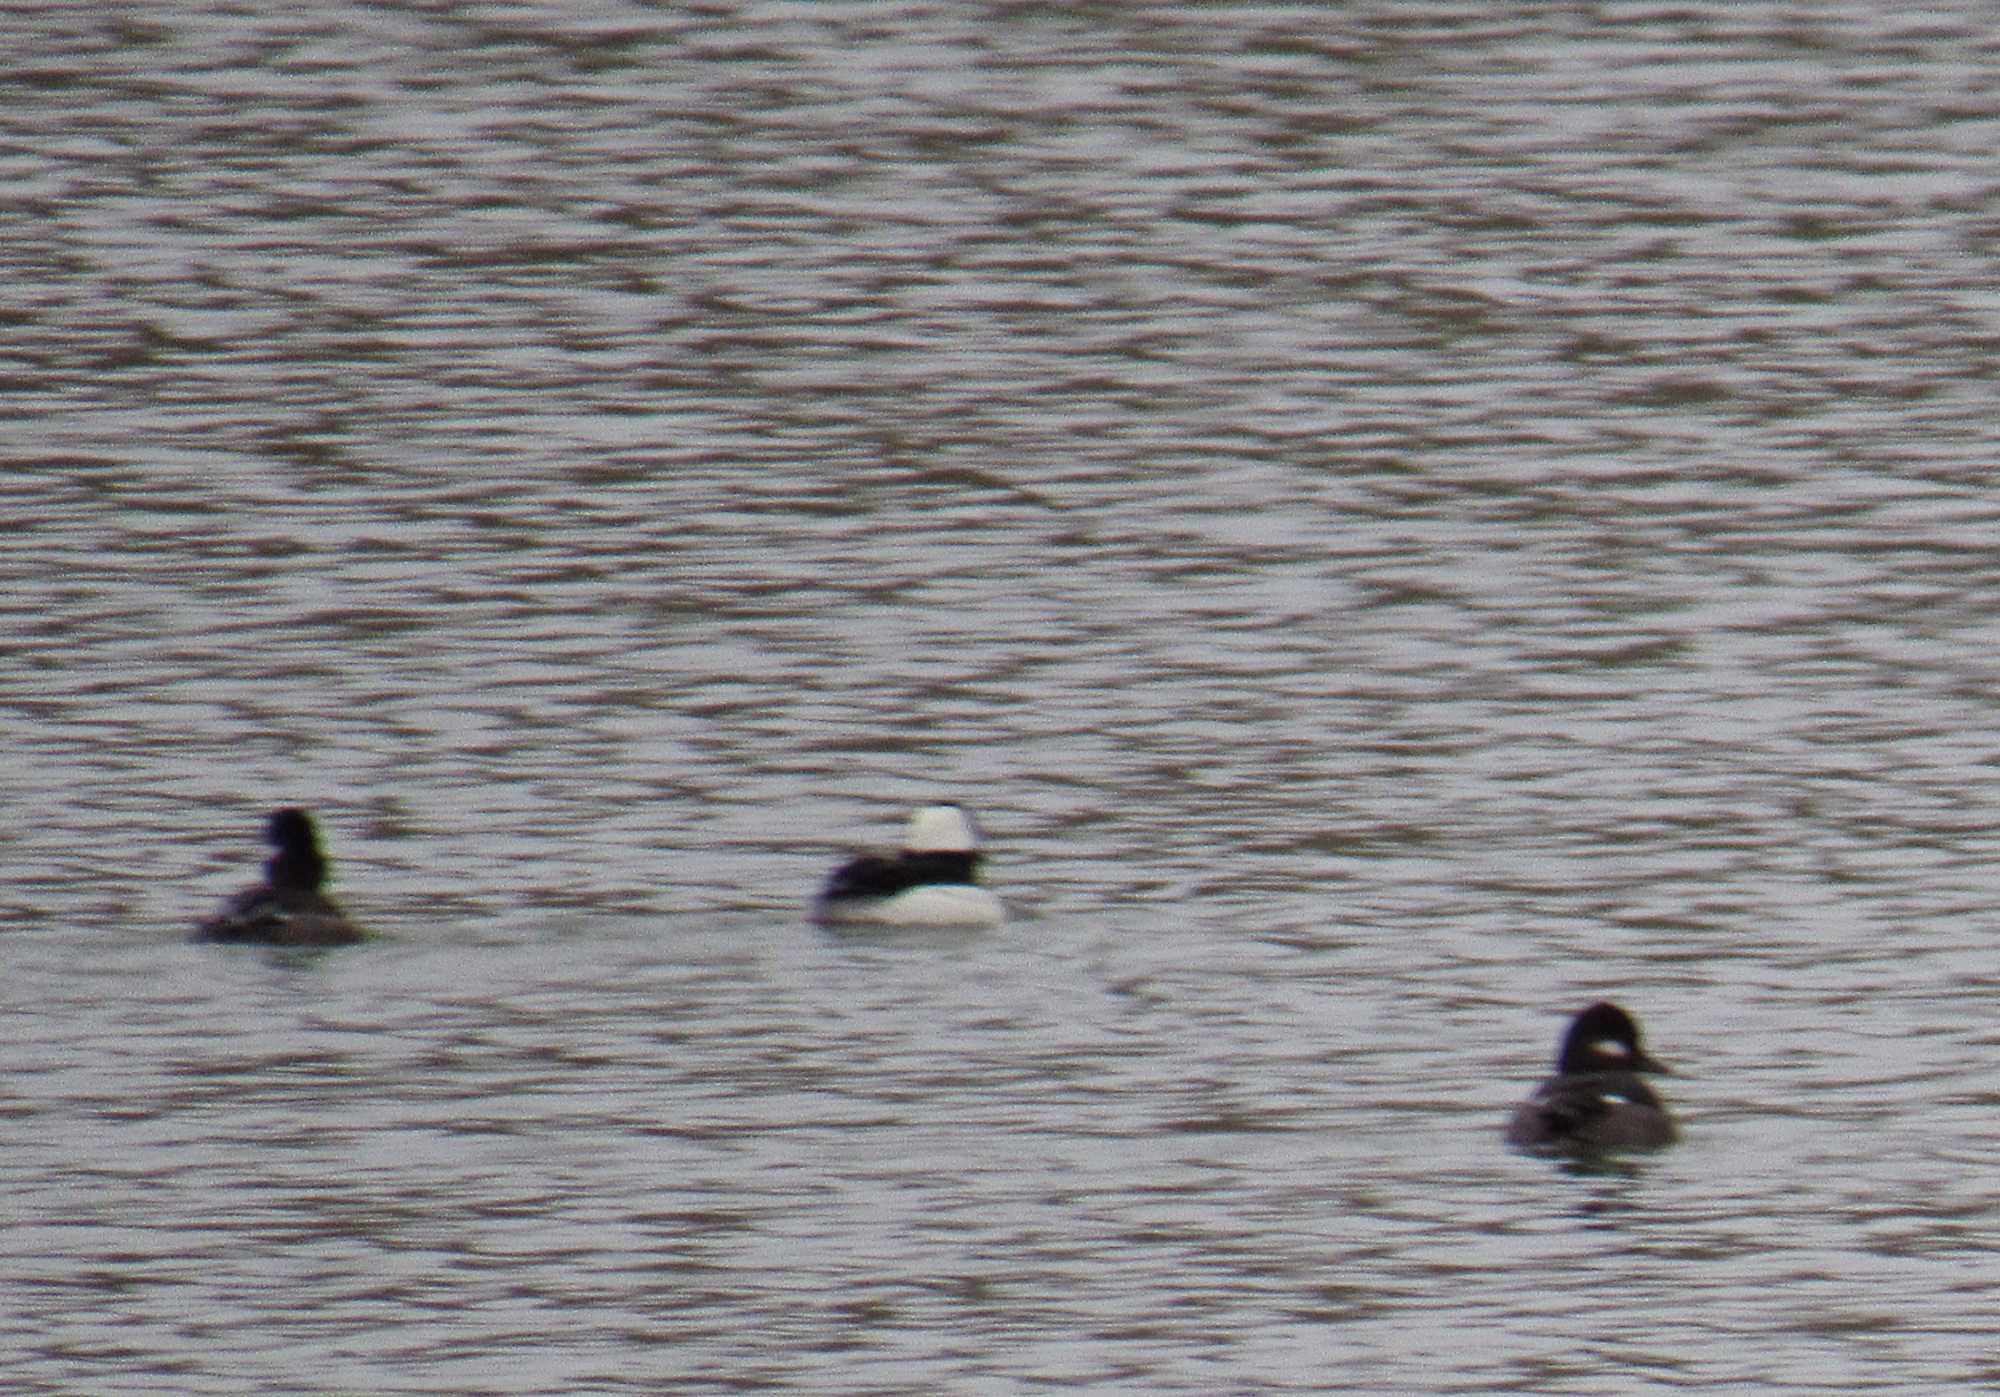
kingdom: Animalia
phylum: Chordata
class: Aves
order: Anseriformes
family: Anatidae
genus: Bucephala
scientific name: Bucephala albeola
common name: Bufflehead
